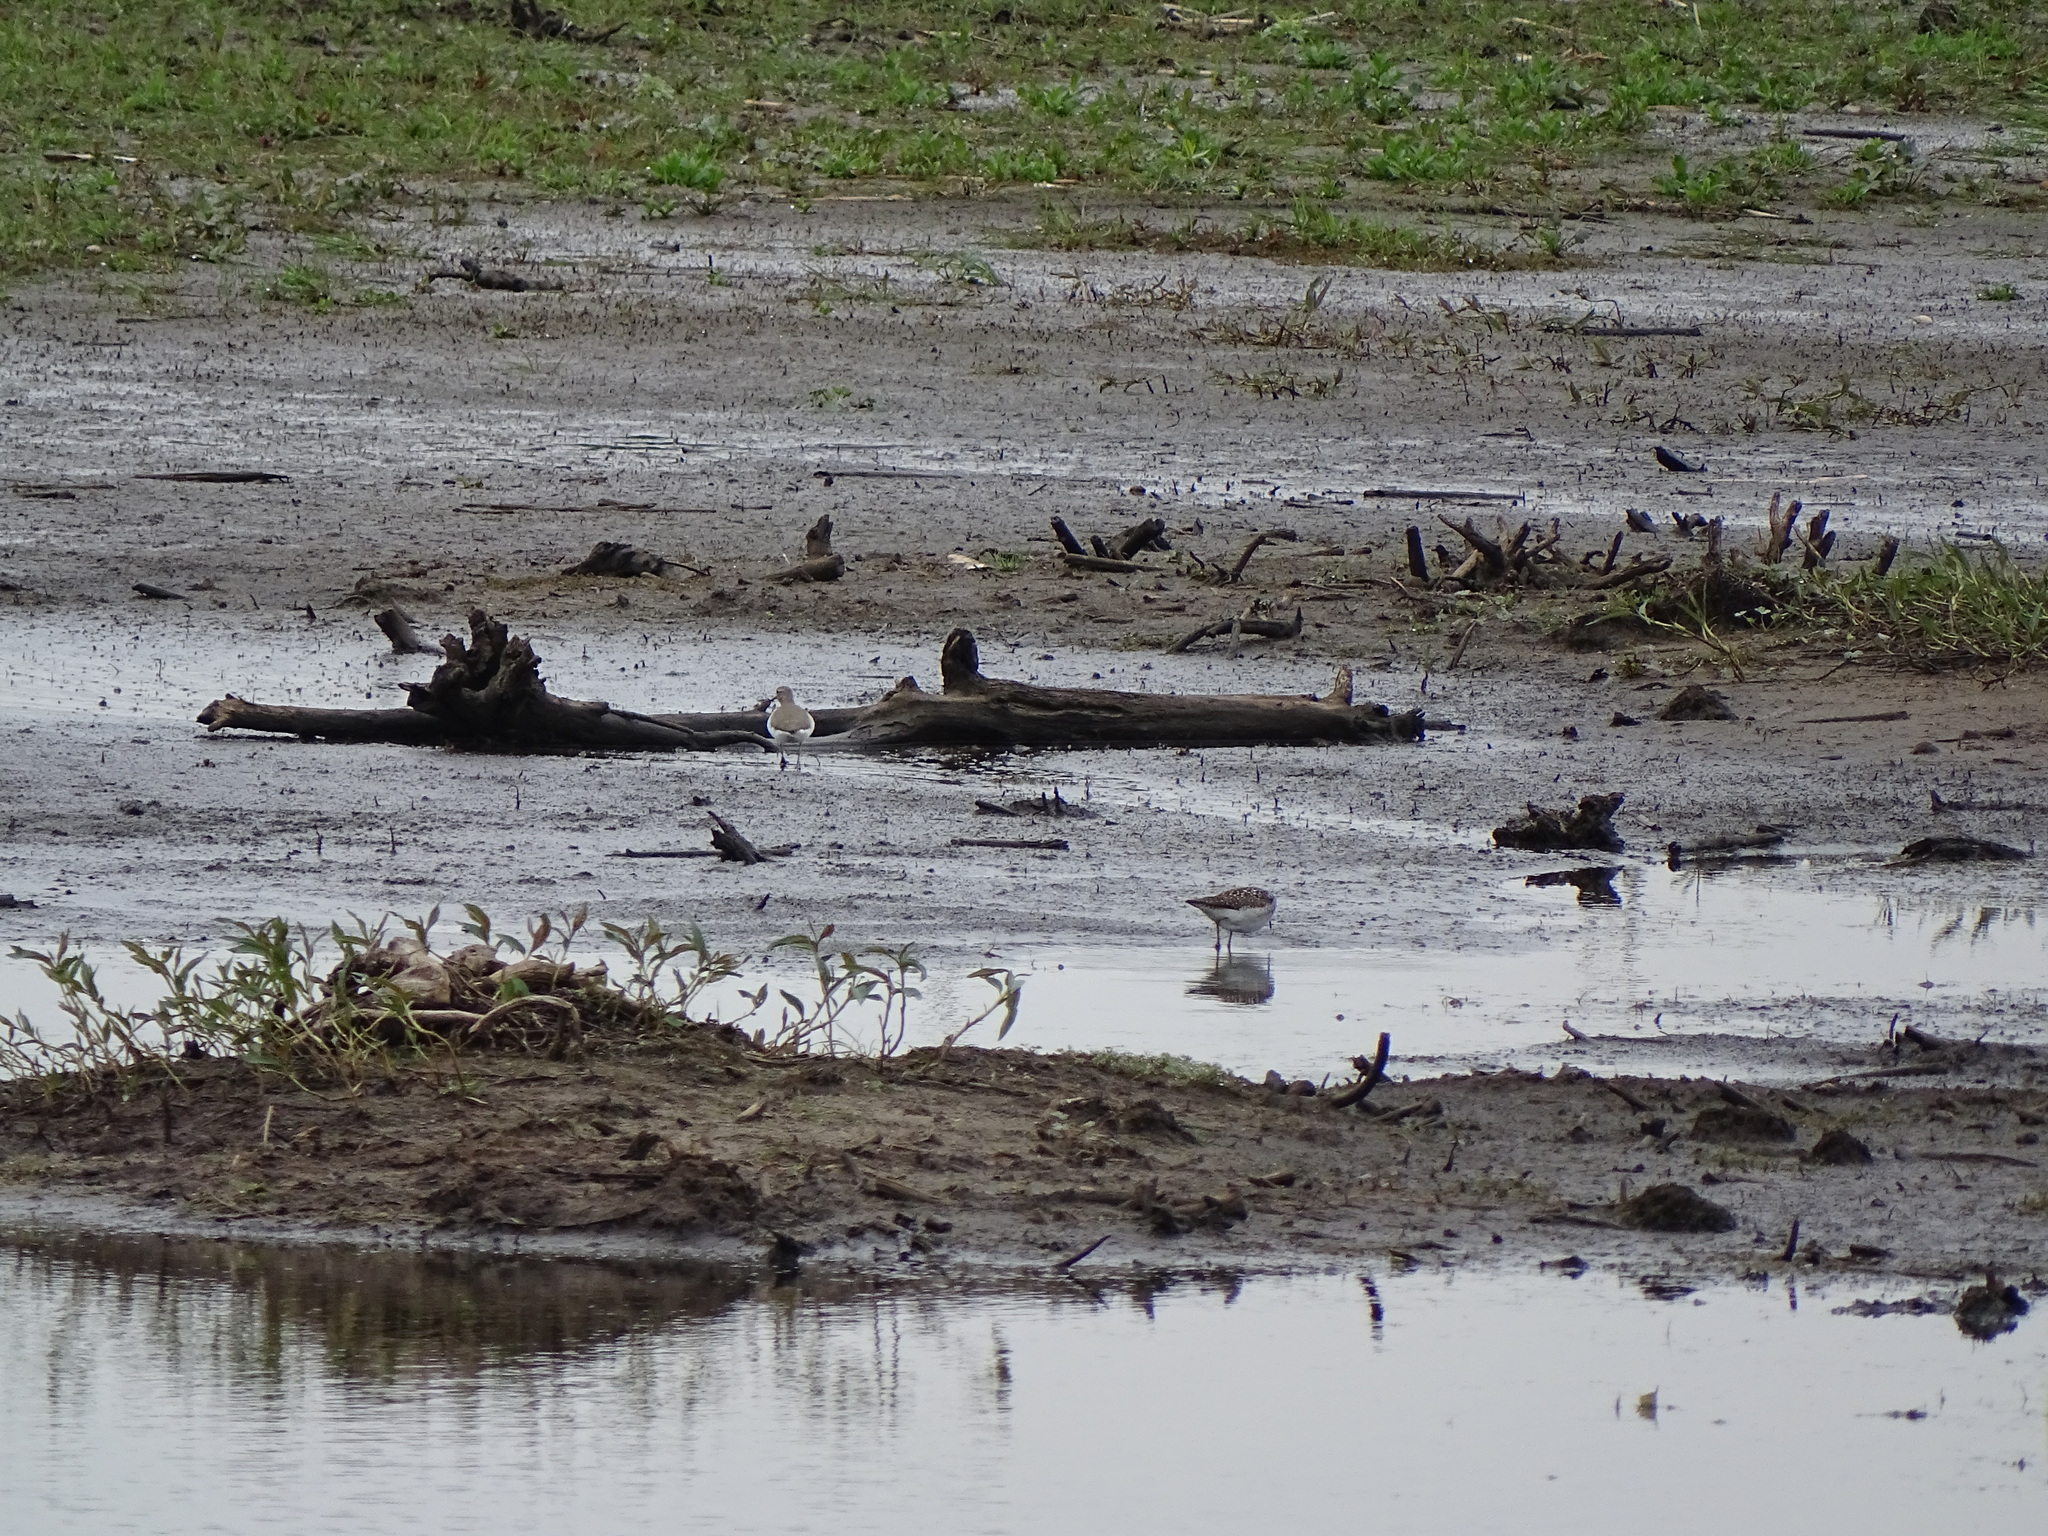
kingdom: Animalia
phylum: Chordata
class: Aves
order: Charadriiformes
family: Scolopacidae
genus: Actitis
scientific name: Actitis hypoleucos
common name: Common sandpiper
